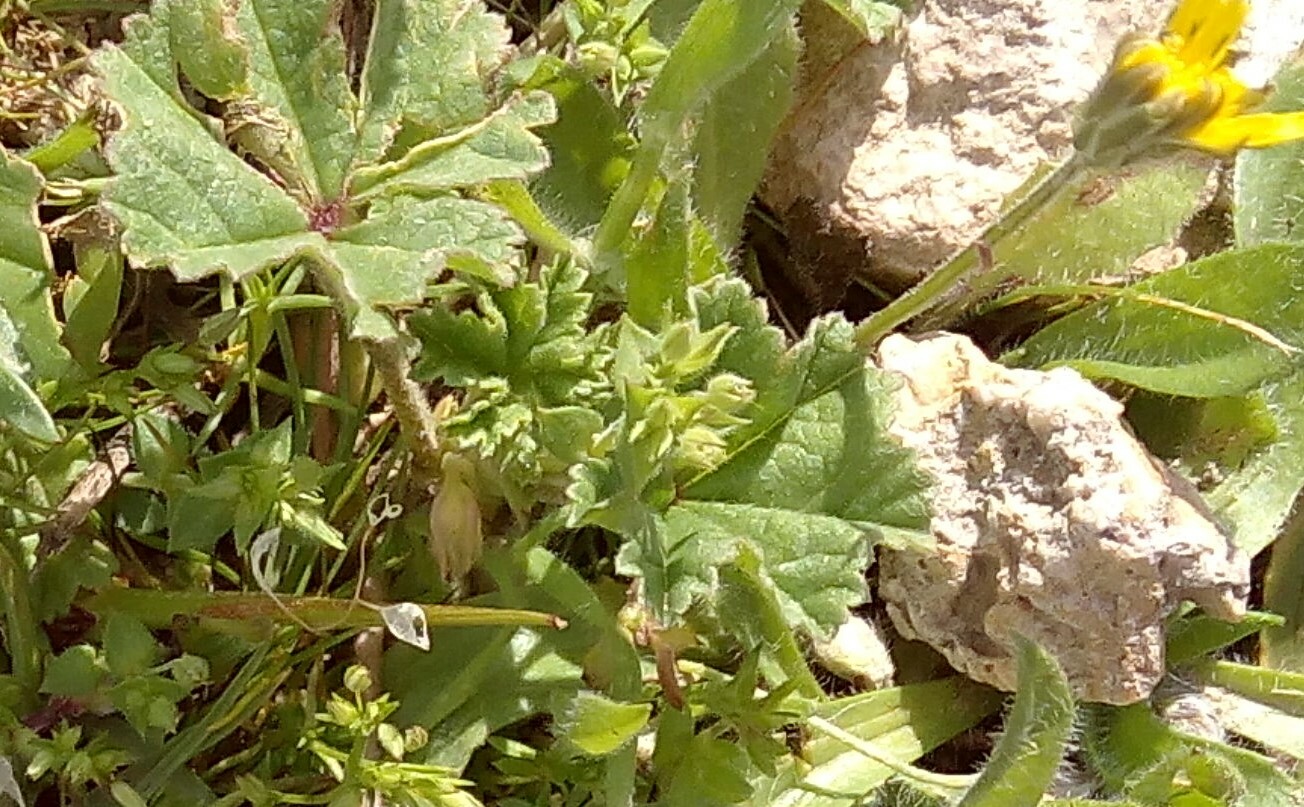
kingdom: Plantae
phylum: Tracheophyta
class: Magnoliopsida
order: Malvales
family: Malvaceae
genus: Malva
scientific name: Malva sylvestris
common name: Common mallow
